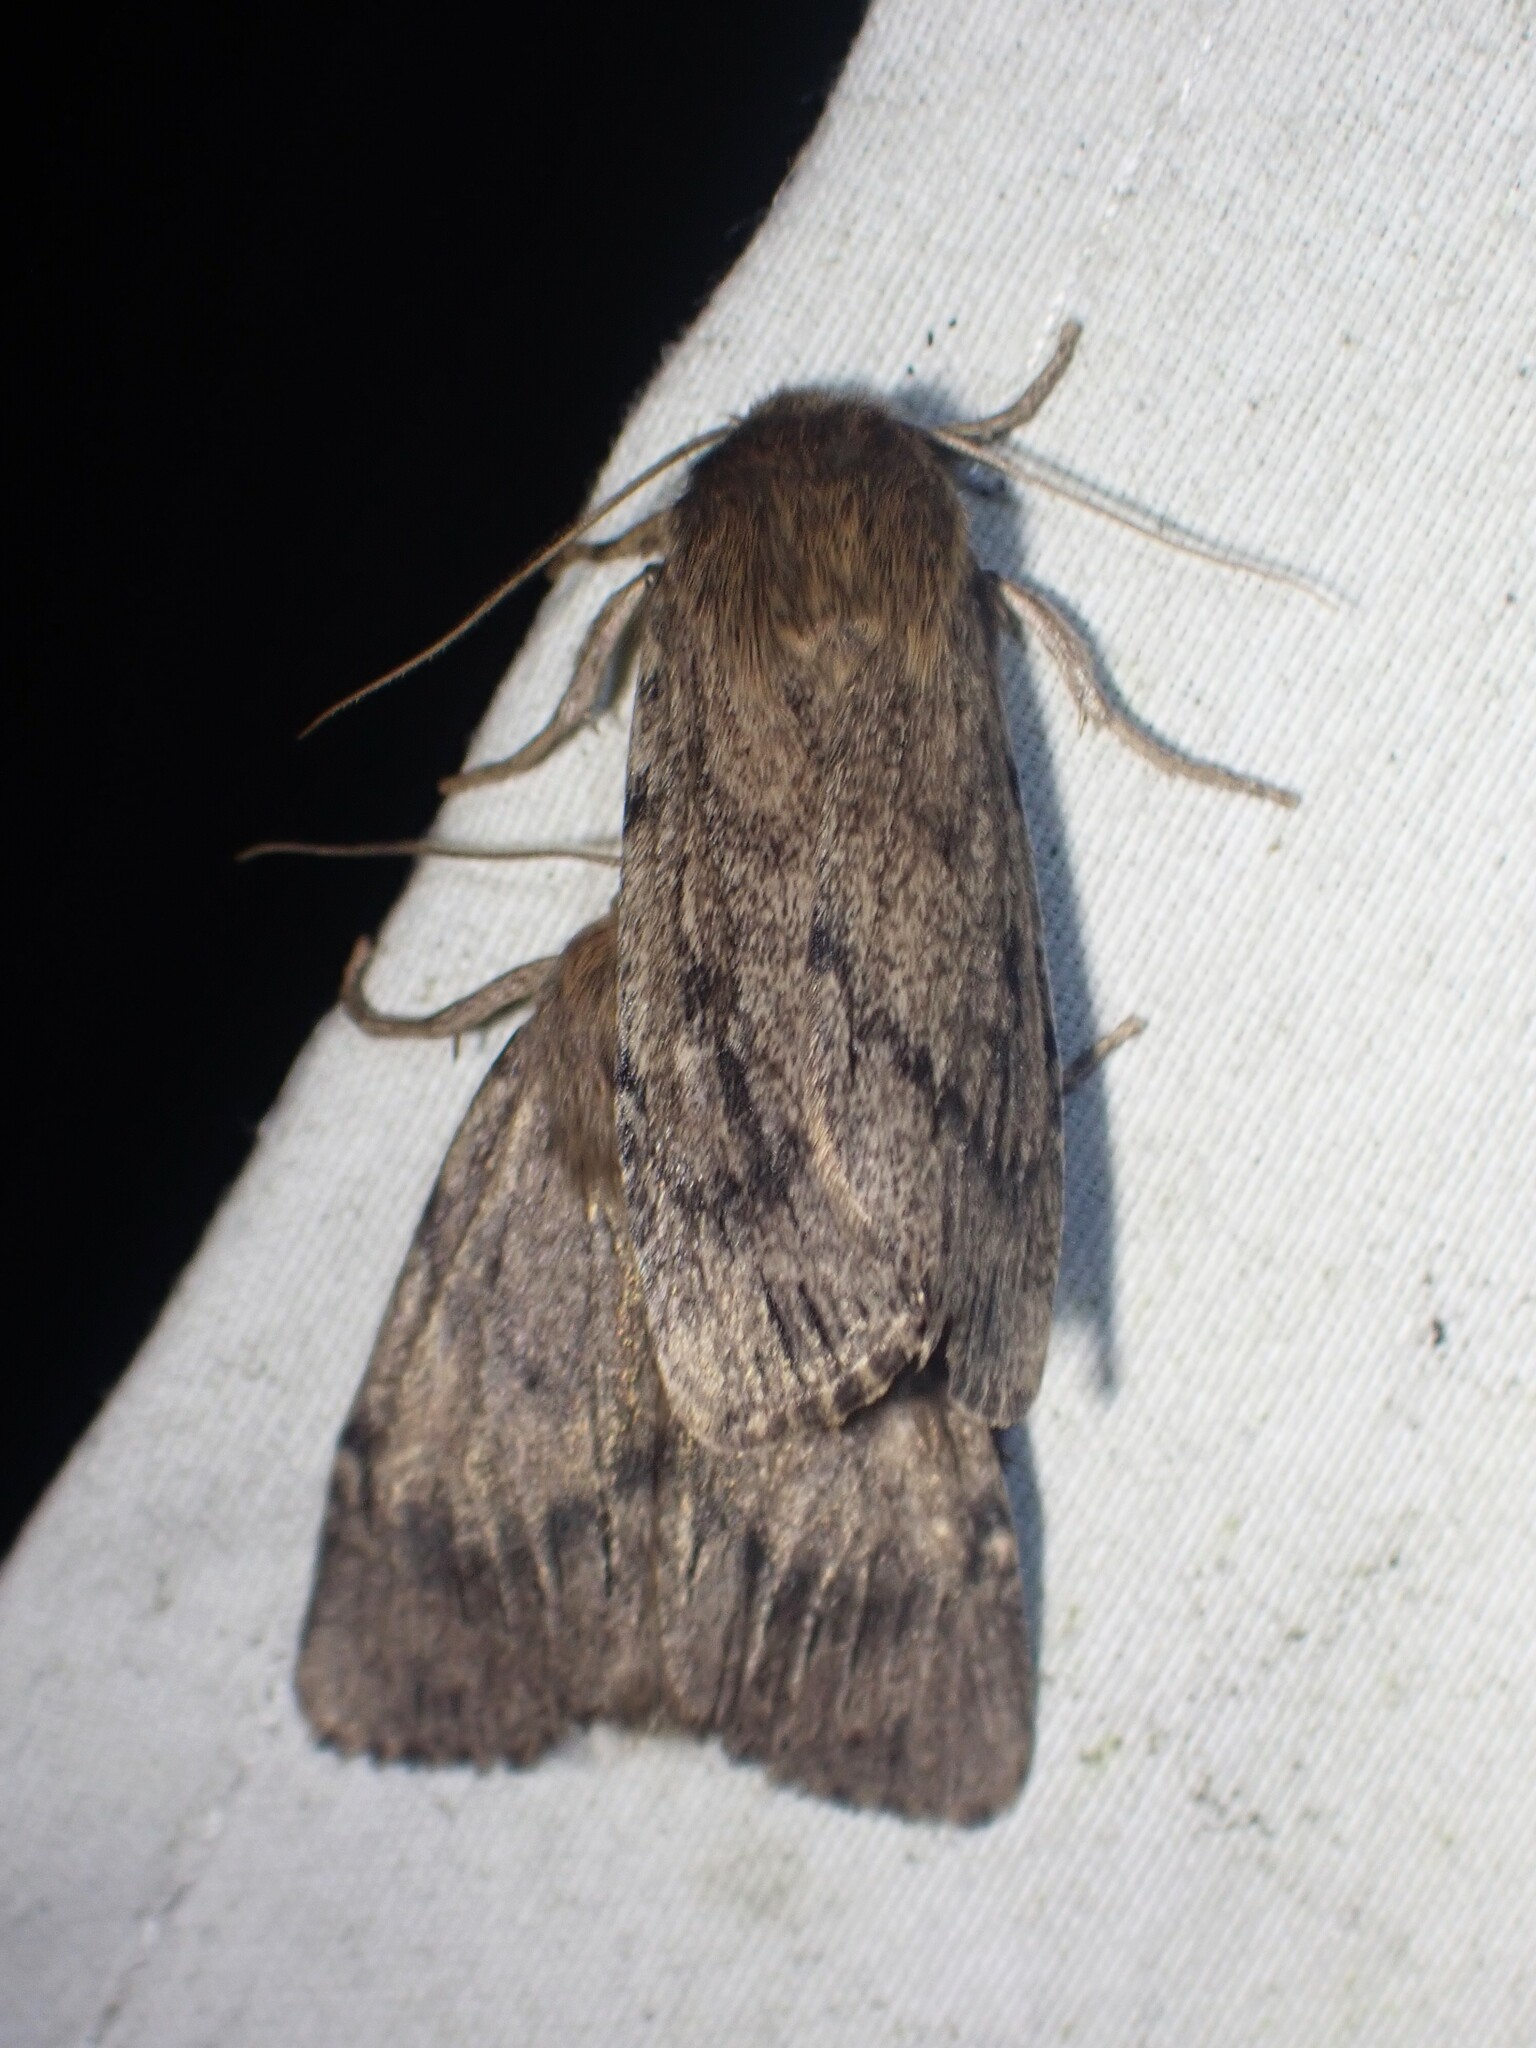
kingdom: Animalia
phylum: Arthropoda
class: Insecta
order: Lepidoptera
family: Noctuidae
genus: Ufeus
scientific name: Ufeus satyricus
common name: Brown satyr moth
